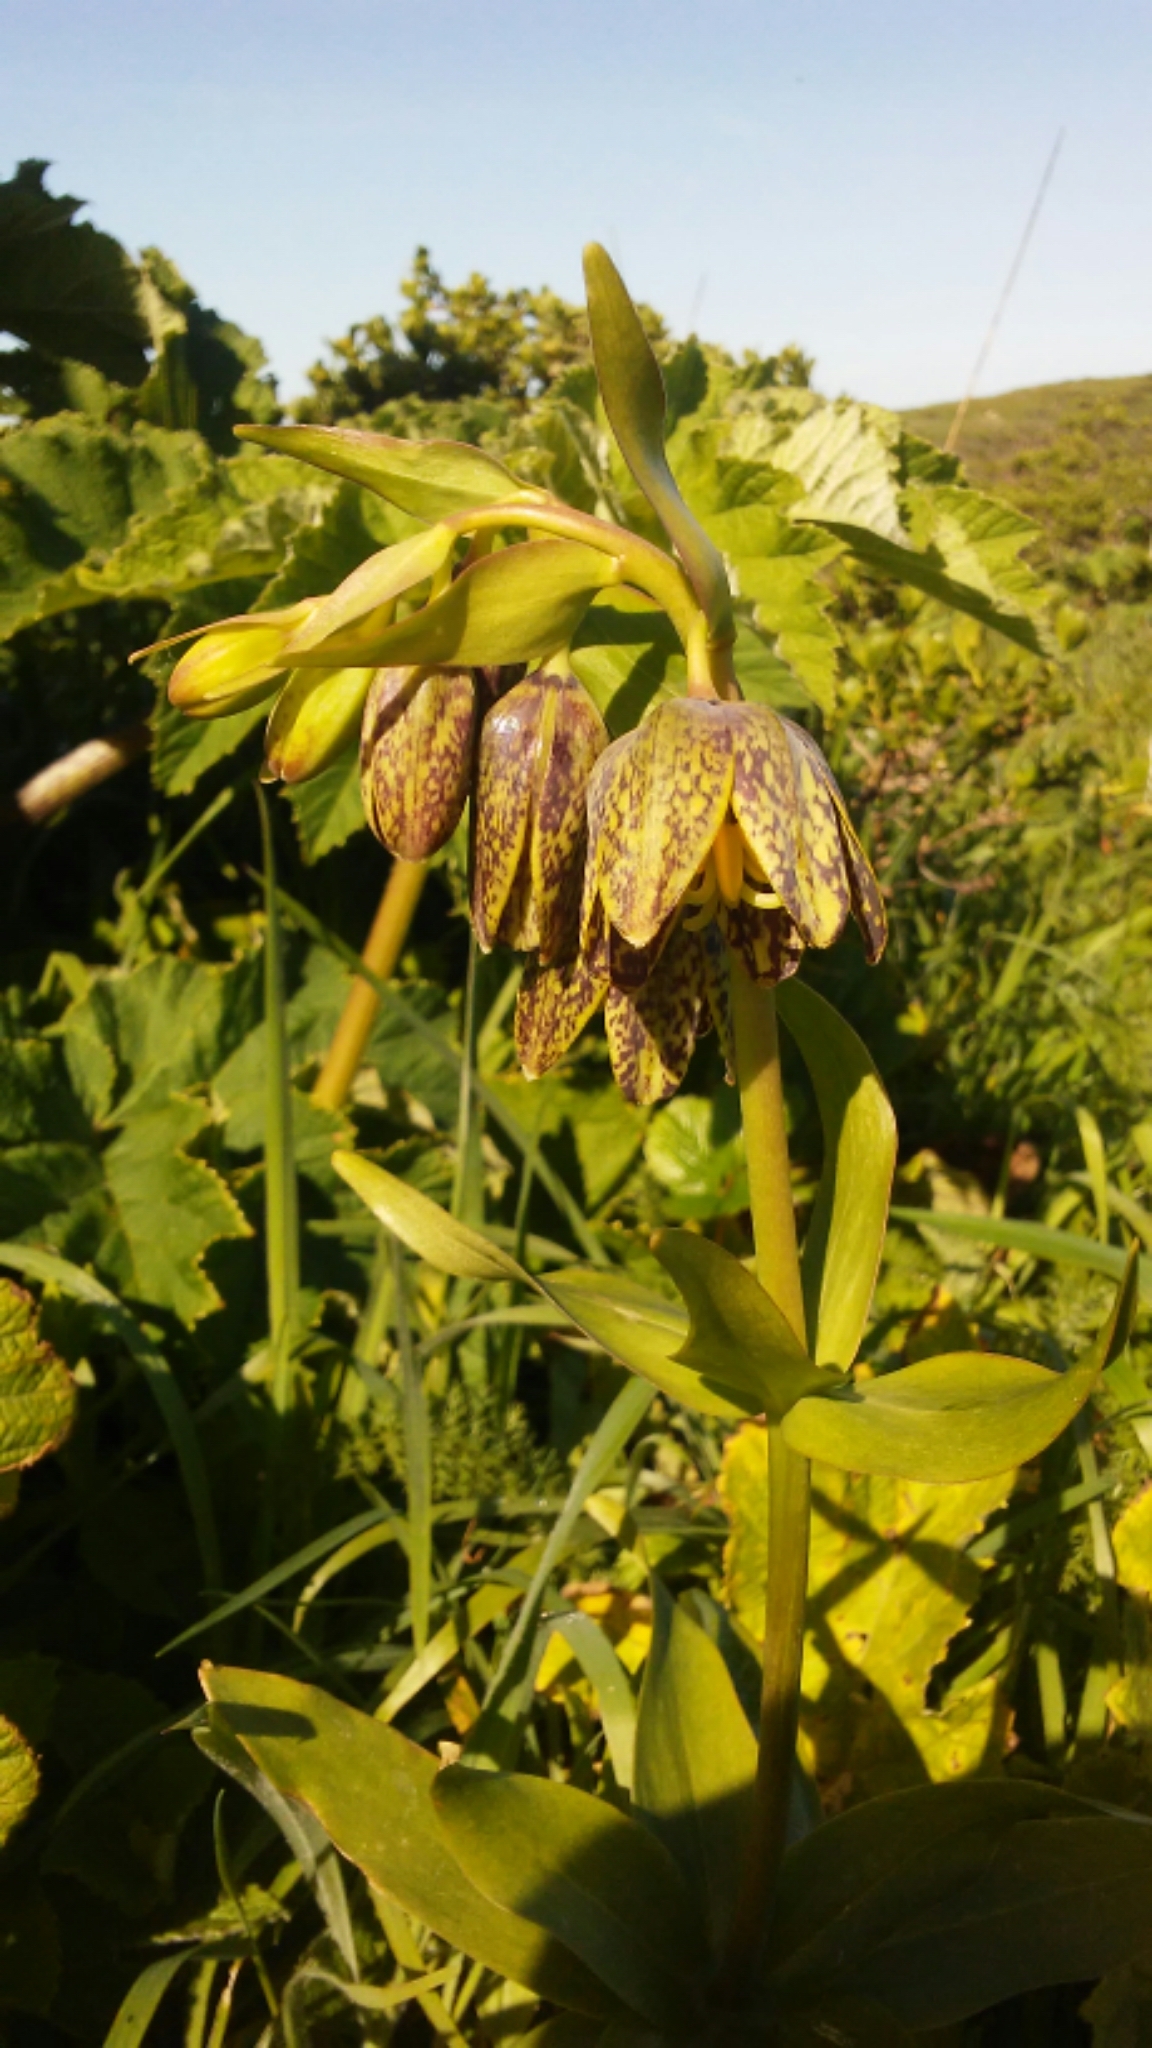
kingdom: Plantae
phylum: Tracheophyta
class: Liliopsida
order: Liliales
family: Liliaceae
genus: Fritillaria
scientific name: Fritillaria affinis
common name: Ojai fritillary
